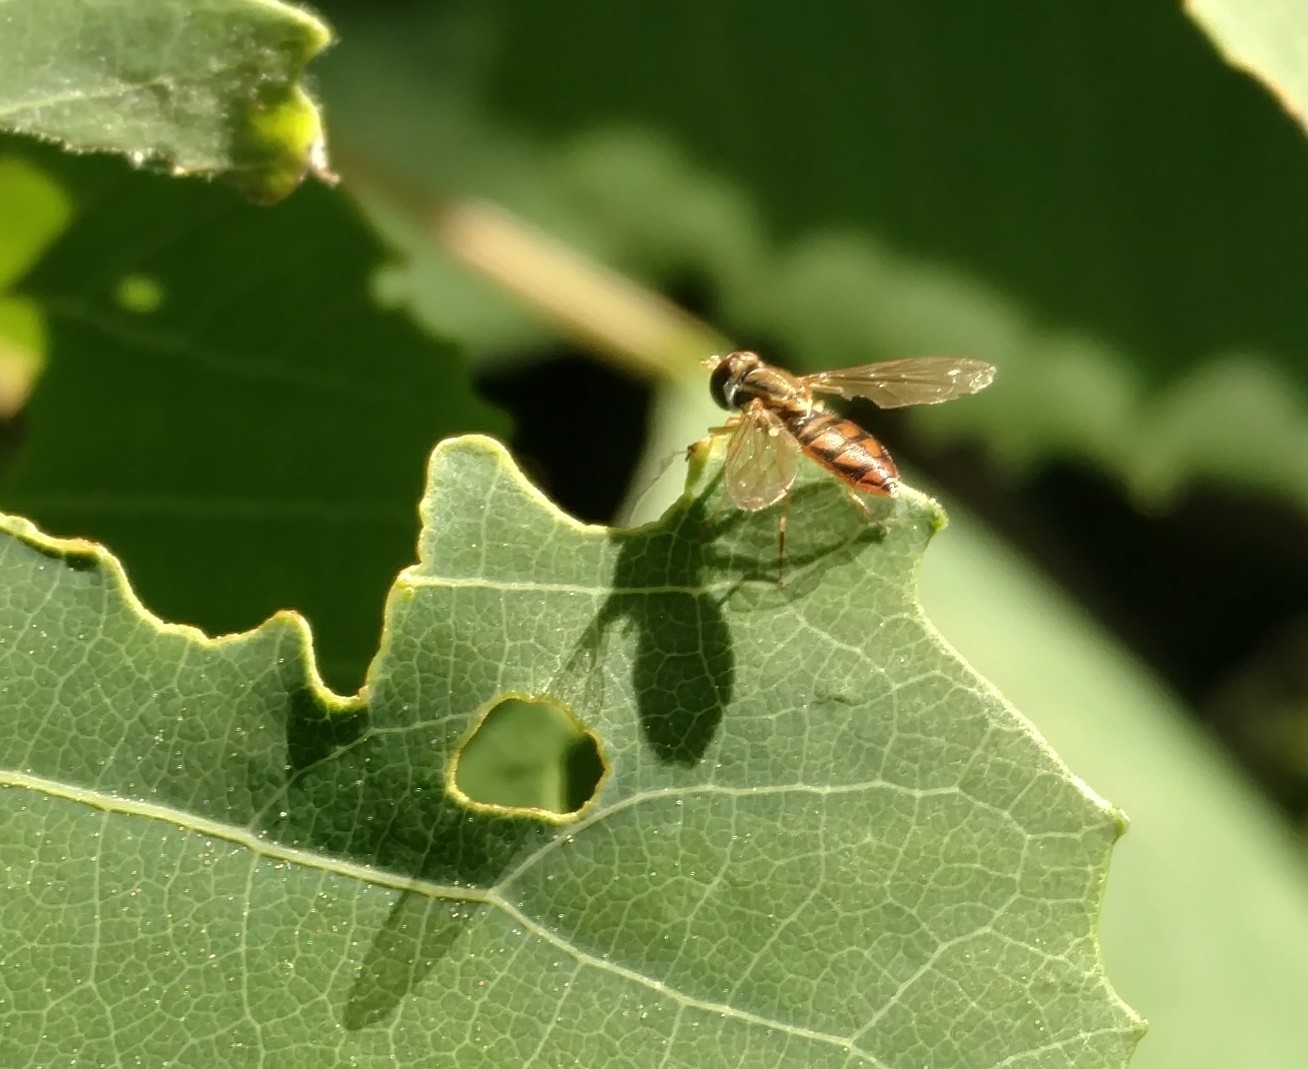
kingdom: Animalia
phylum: Arthropoda
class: Insecta
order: Diptera
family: Syrphidae
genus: Toxomerus
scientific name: Toxomerus marginatus
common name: Syrphid fly
